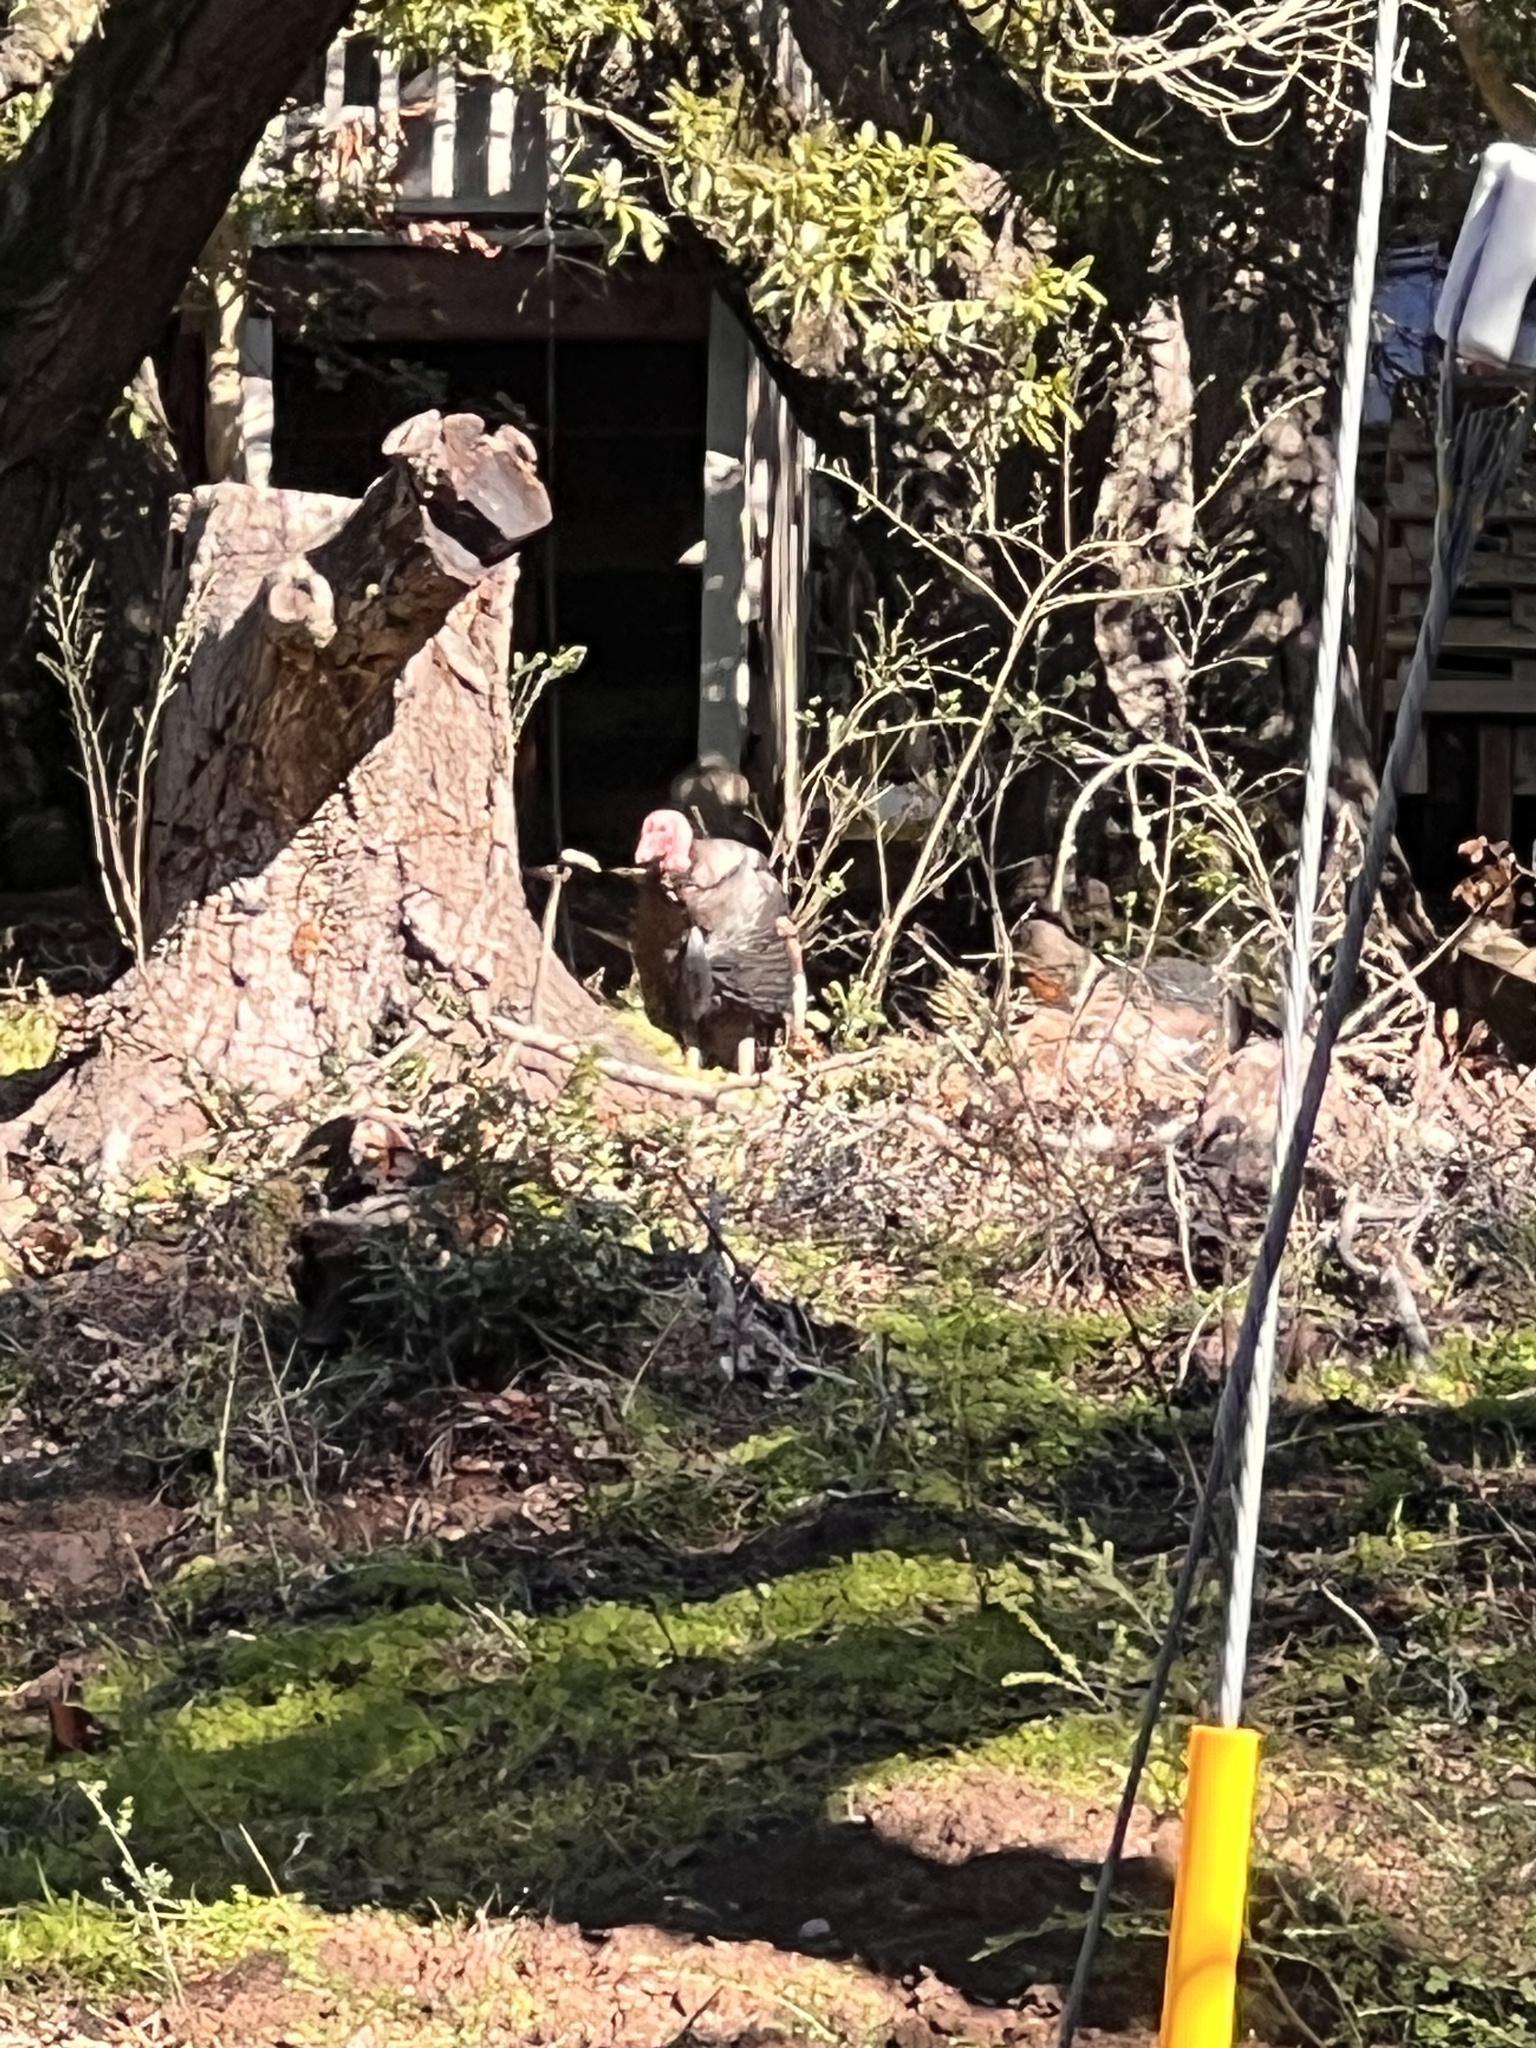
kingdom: Animalia
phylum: Chordata
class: Aves
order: Galliformes
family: Phasianidae
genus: Meleagris
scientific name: Meleagris gallopavo
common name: Wild turkey
